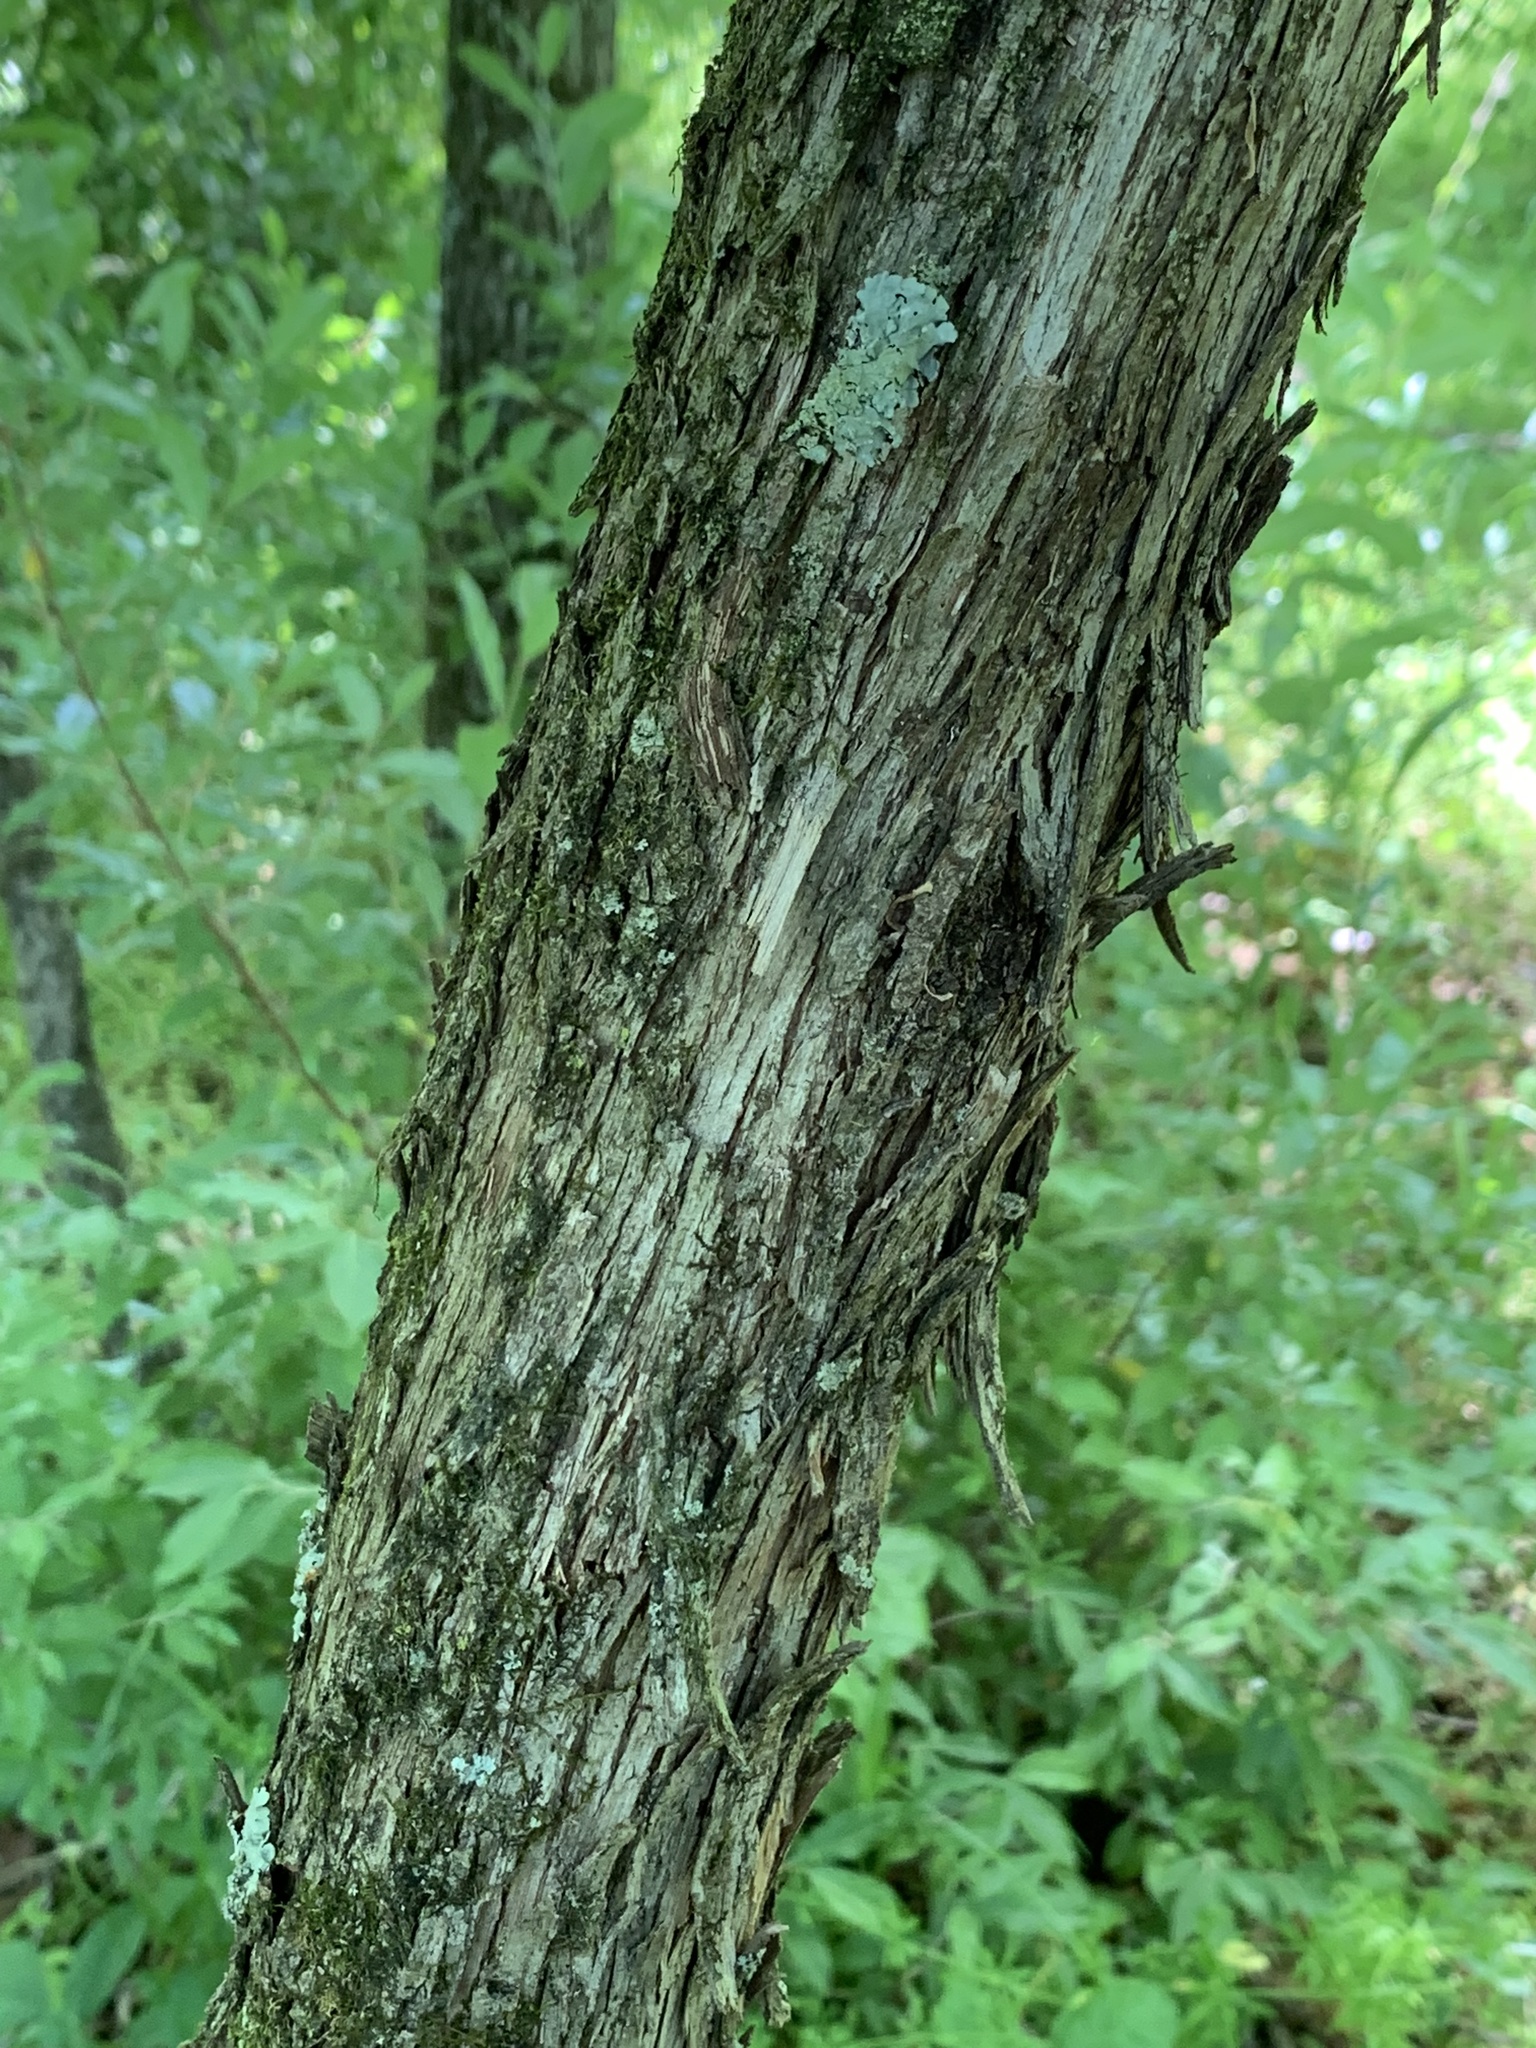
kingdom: Plantae
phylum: Tracheophyta
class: Magnoliopsida
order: Fagales
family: Betulaceae
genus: Ostrya
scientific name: Ostrya virginiana
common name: Ironwood
